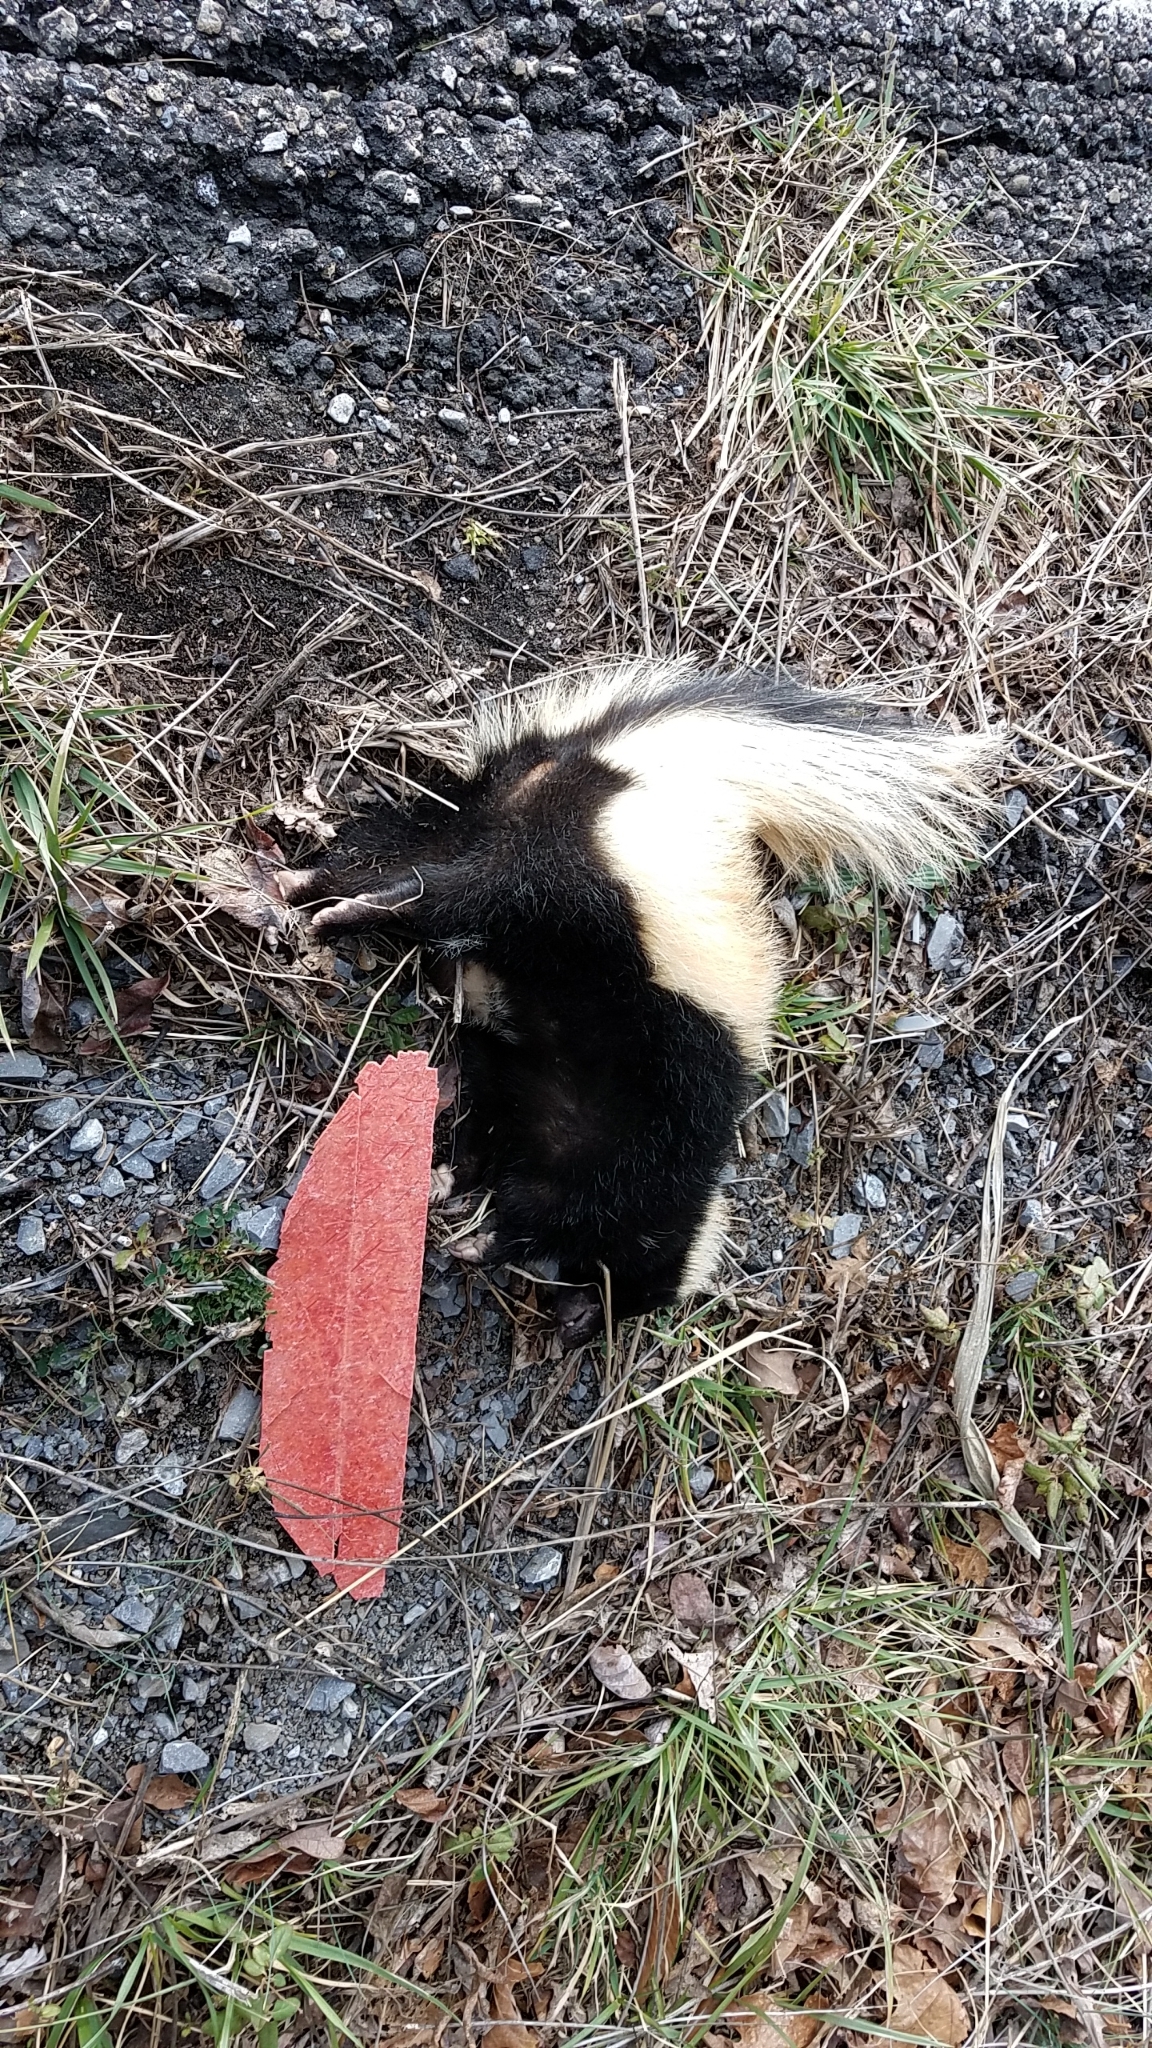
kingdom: Animalia
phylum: Chordata
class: Mammalia
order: Carnivora
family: Mephitidae
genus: Mephitis
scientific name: Mephitis mephitis
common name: Striped skunk
